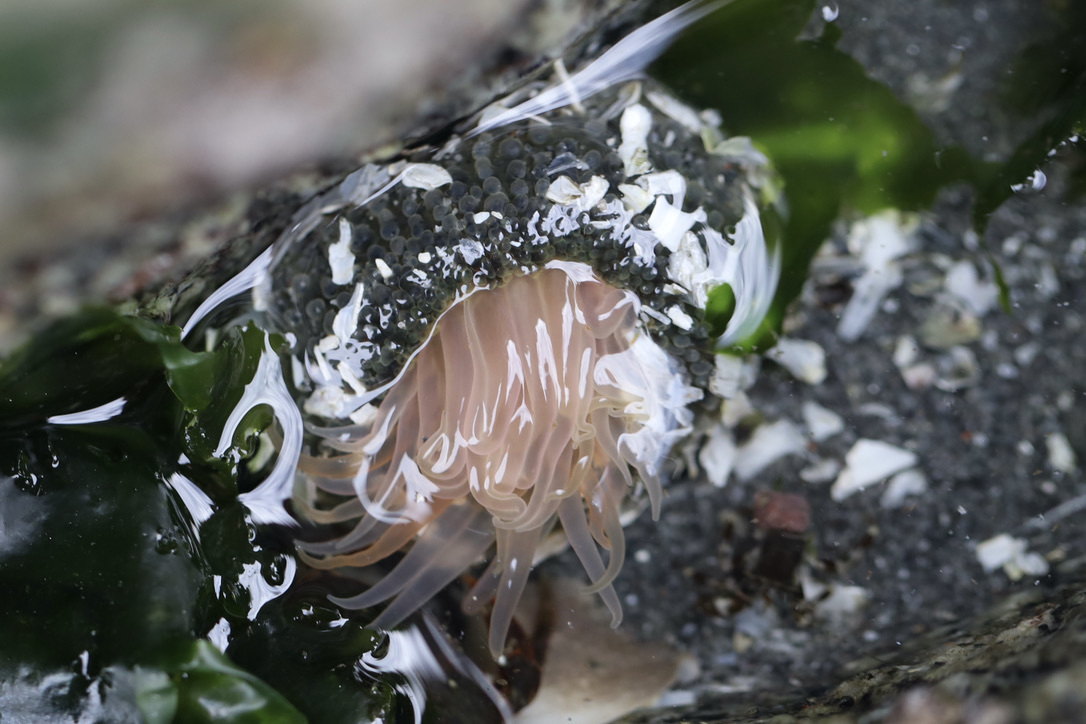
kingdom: Animalia
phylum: Cnidaria
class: Anthozoa
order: Actiniaria
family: Actiniidae
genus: Anthopleura
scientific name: Anthopleura artemisia
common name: Buried sea anemone
